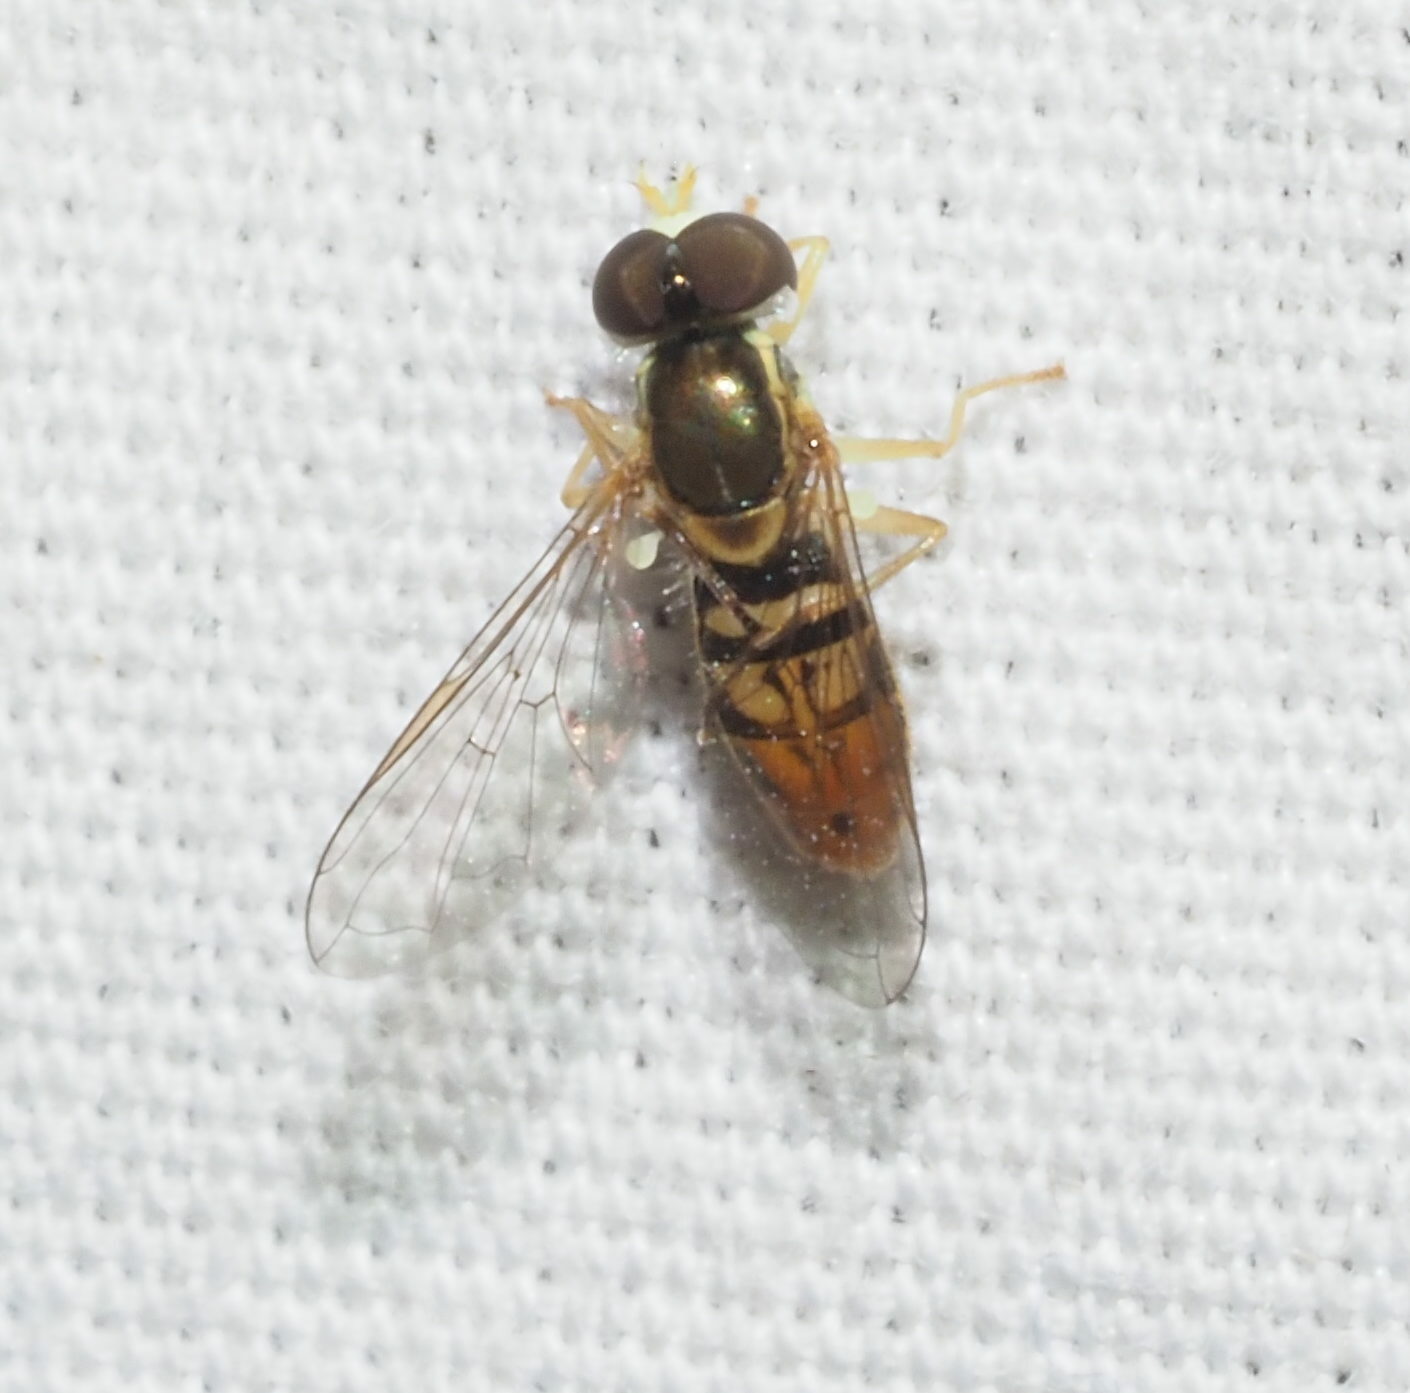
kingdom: Animalia
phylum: Arthropoda
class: Insecta
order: Diptera
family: Syrphidae
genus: Toxomerus
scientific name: Toxomerus marginatus
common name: Syrphid fly
